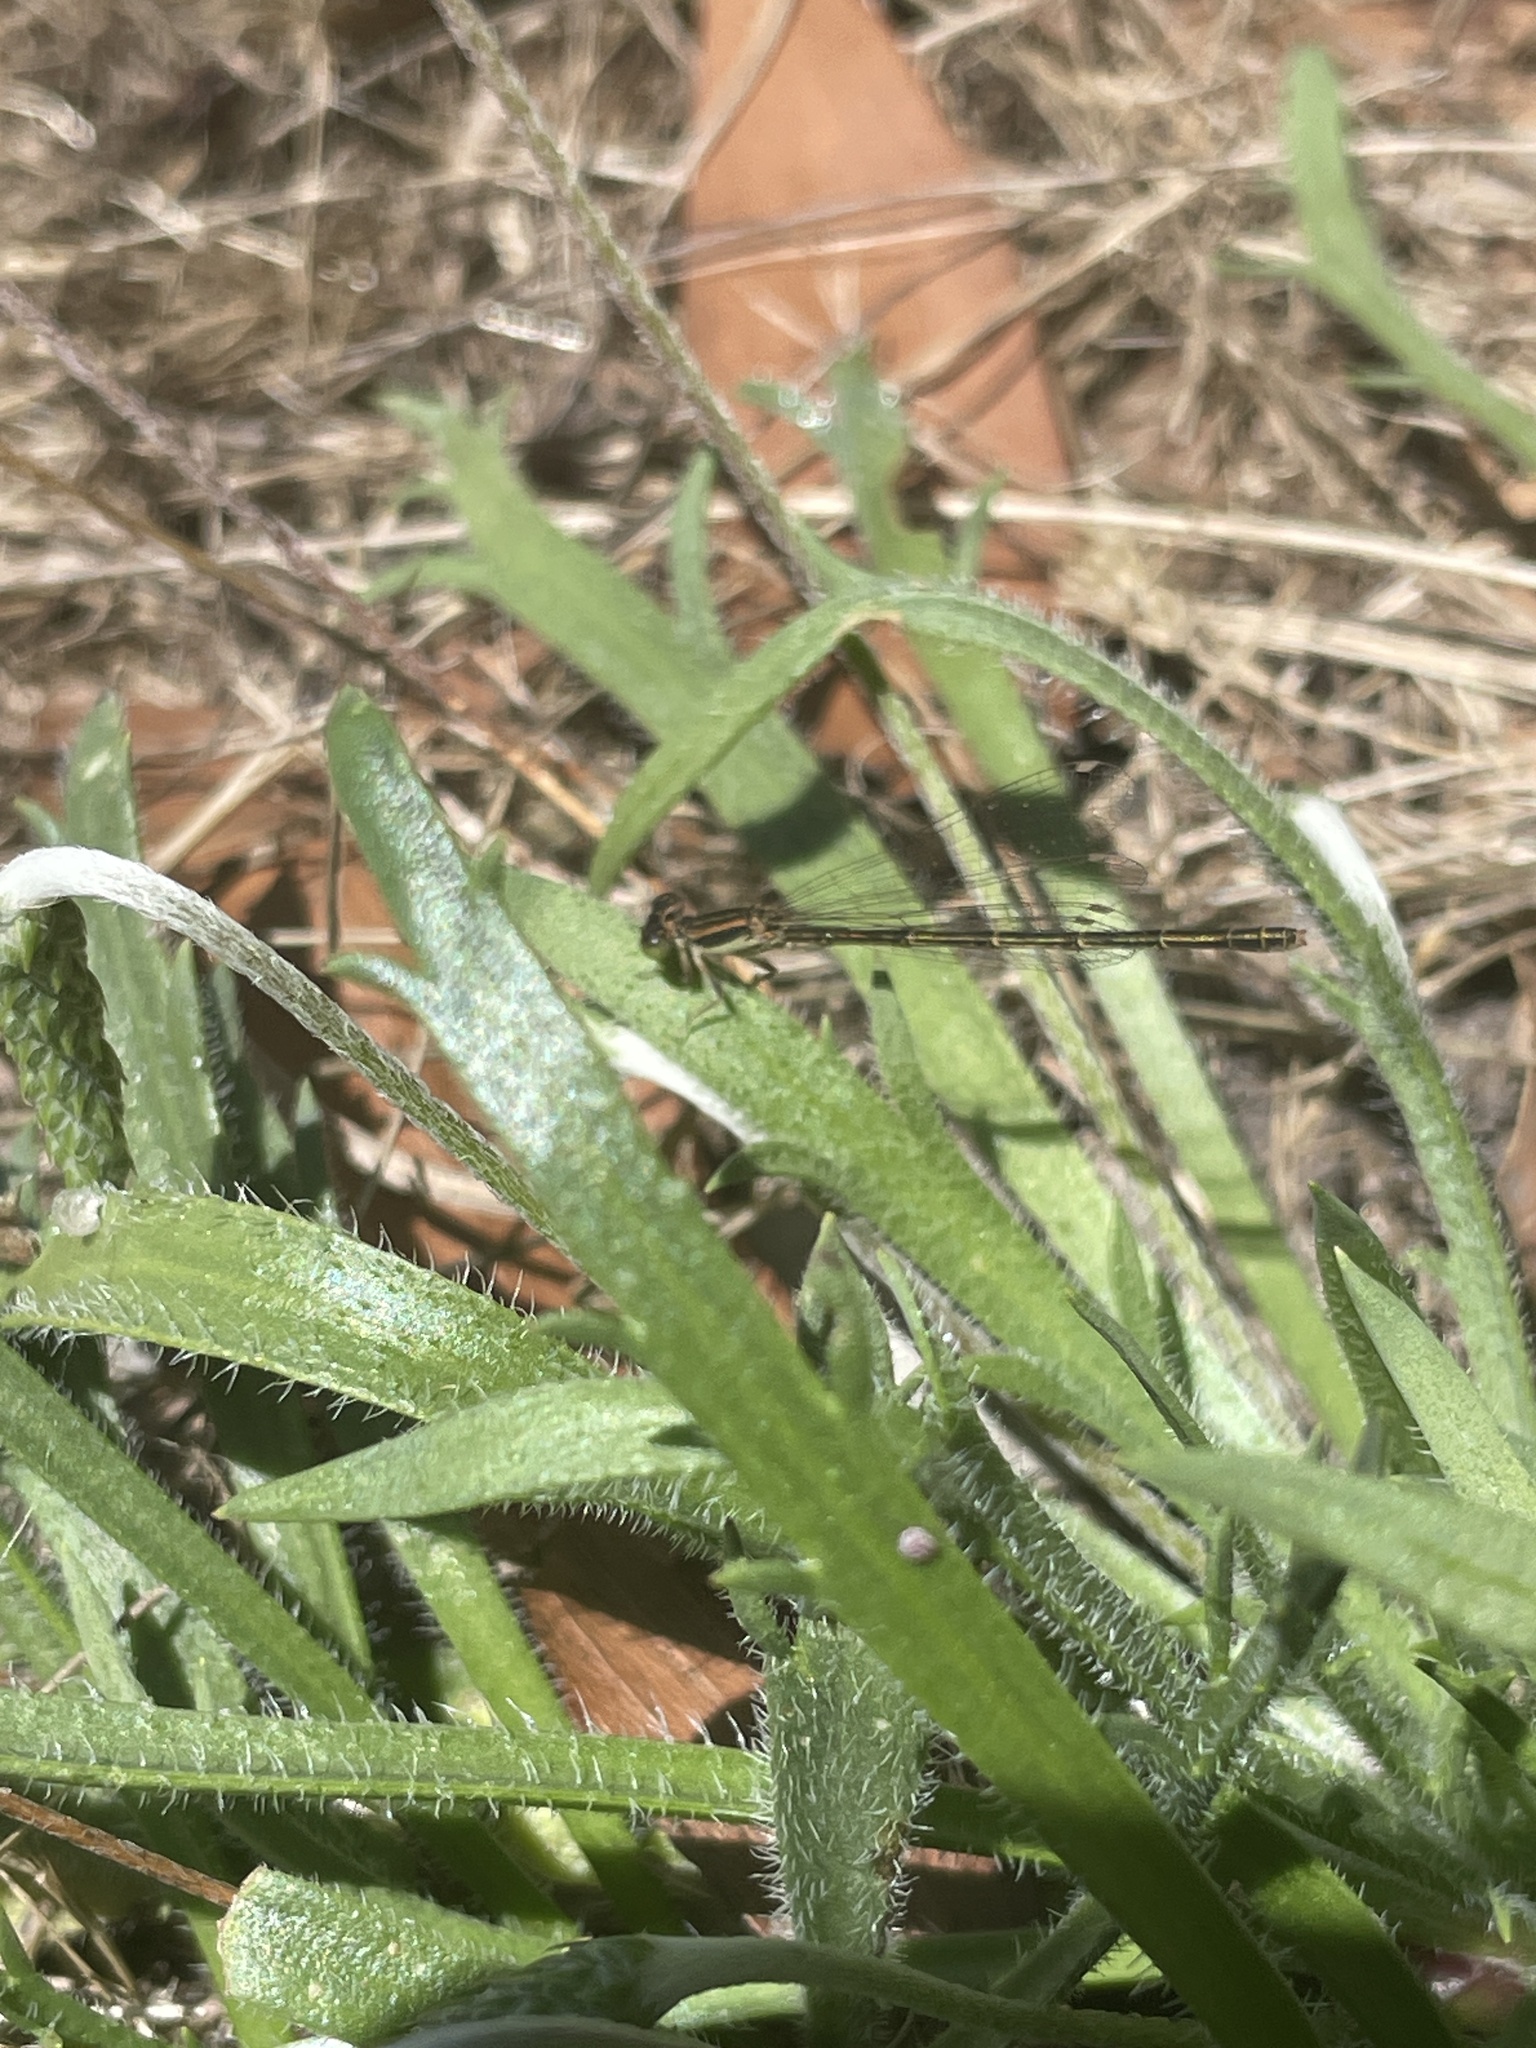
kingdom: Animalia
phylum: Arthropoda
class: Insecta
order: Odonata
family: Coenagrionidae
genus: Ischnura
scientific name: Ischnura aurora
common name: Gossamer damselfly
